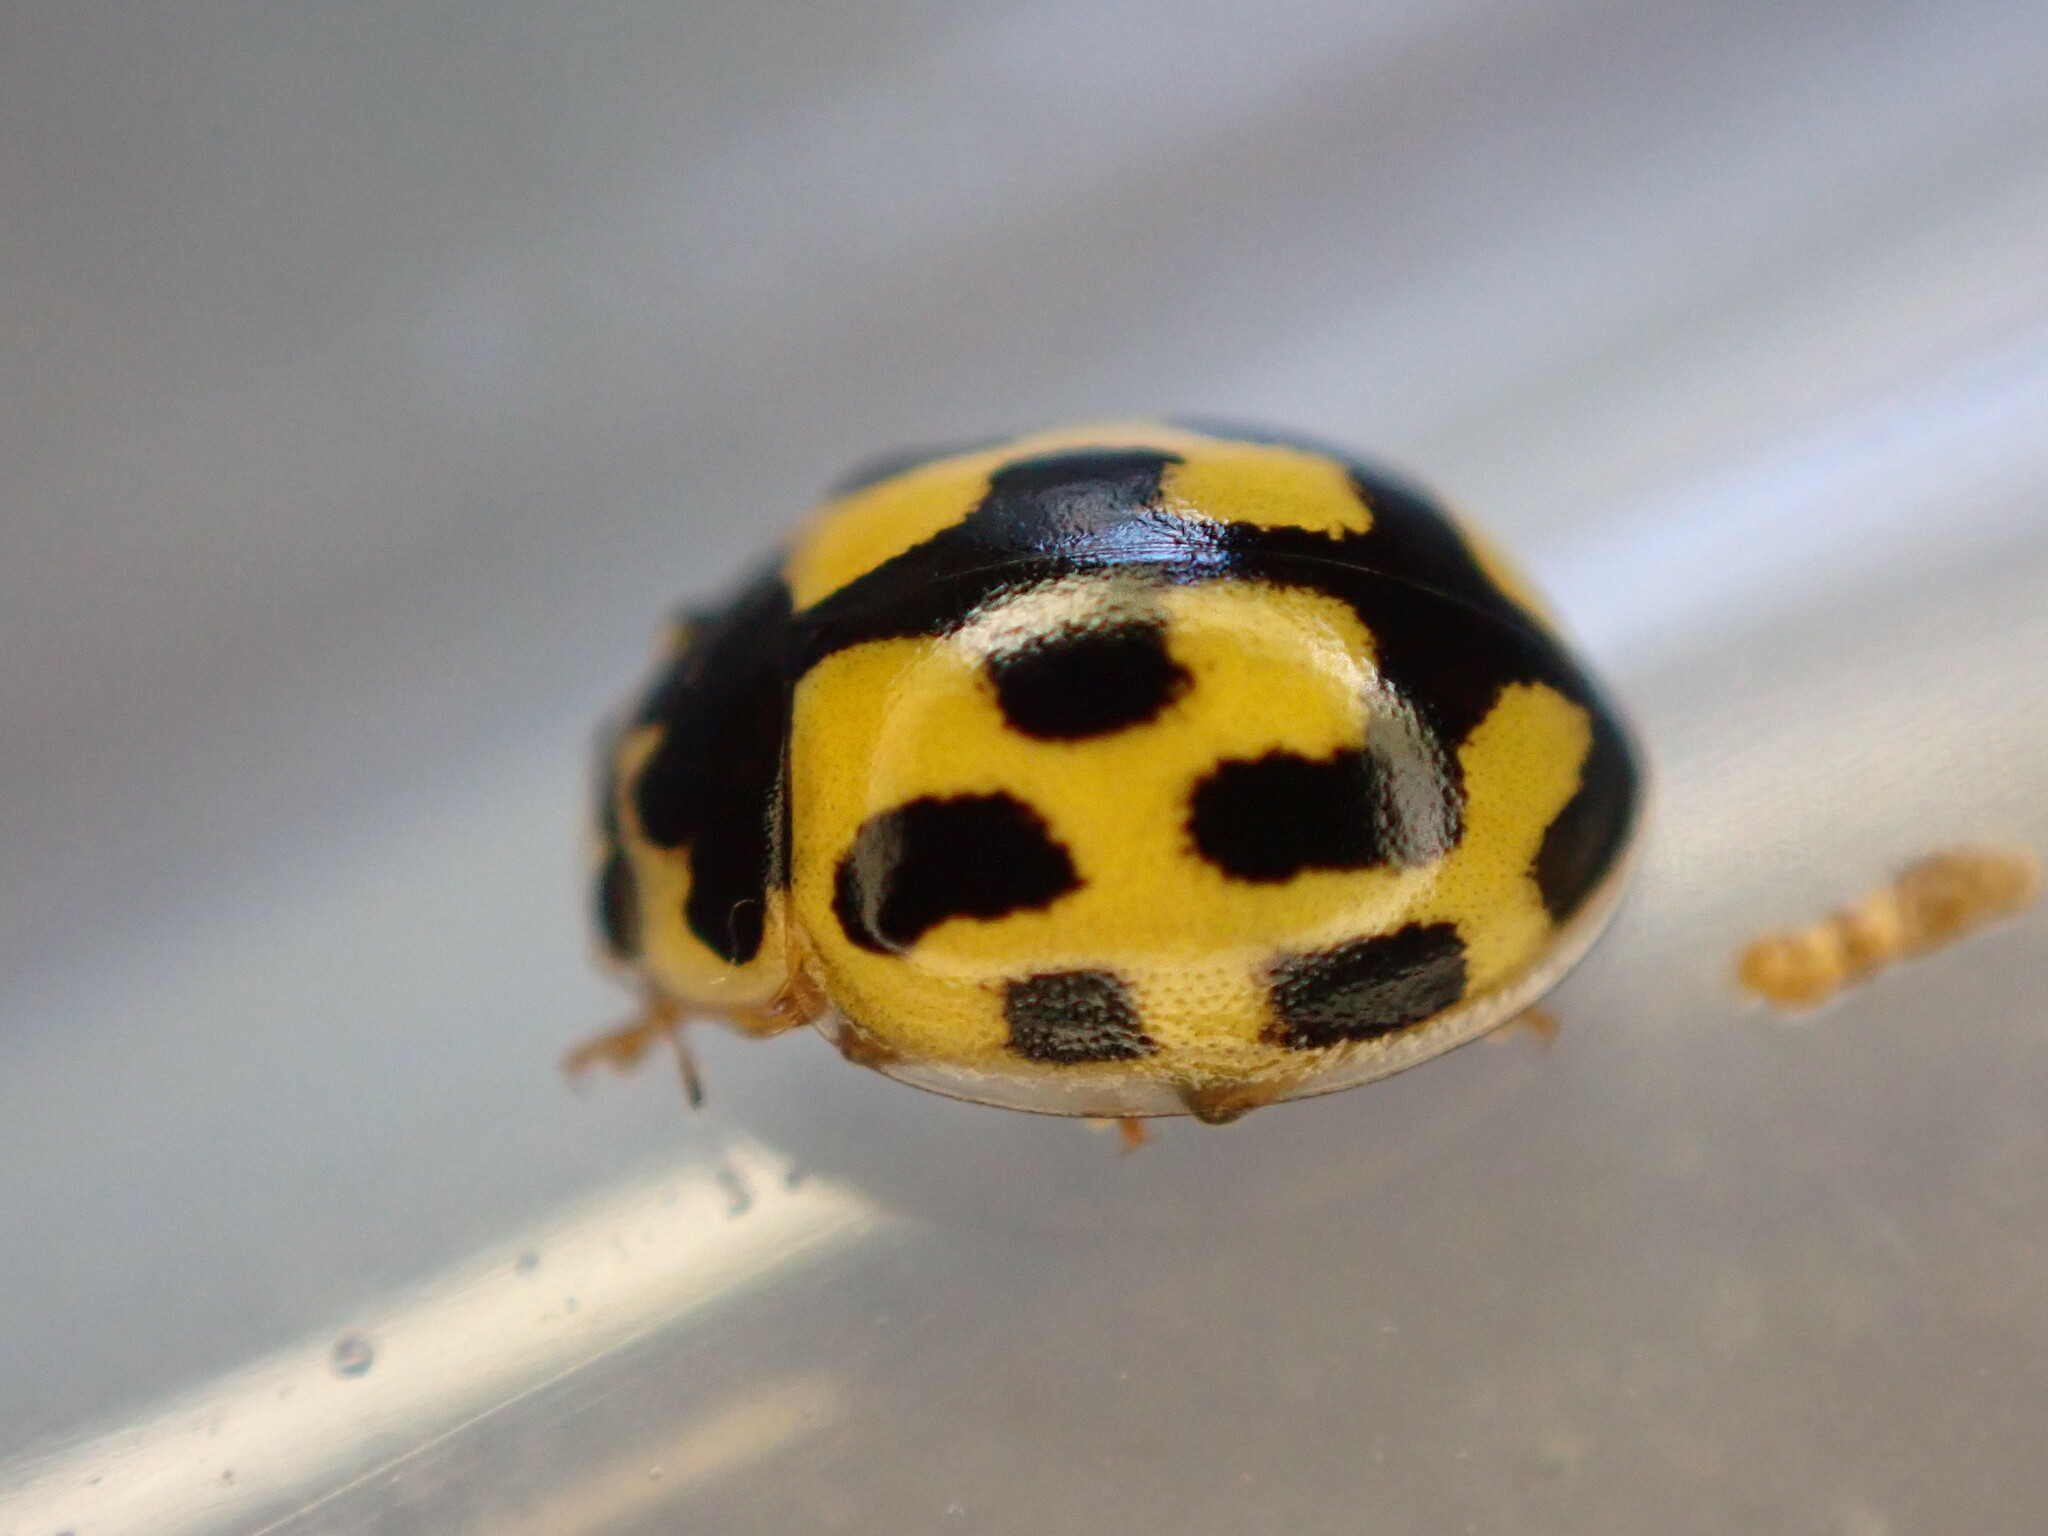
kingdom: Animalia
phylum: Arthropoda
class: Insecta
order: Coleoptera
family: Coccinellidae
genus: Propylaea
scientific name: Propylaea quatuordecimpunctata
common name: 14-spotted ladybird beetle
